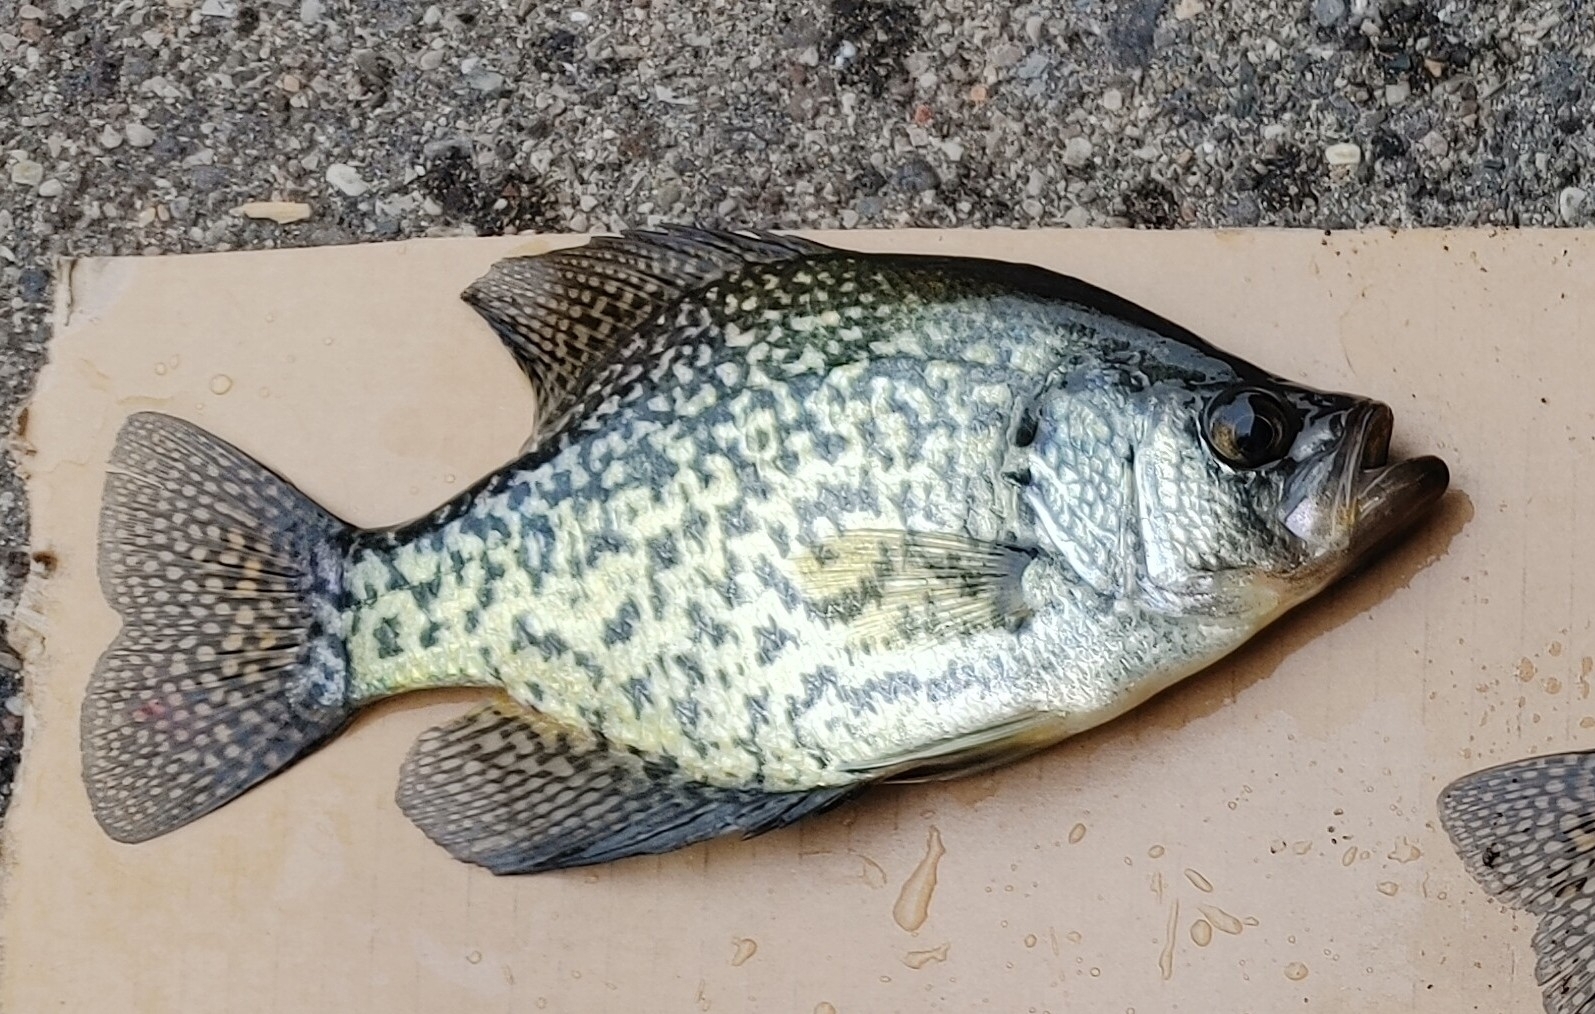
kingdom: Animalia
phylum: Chordata
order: Perciformes
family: Centrarchidae
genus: Pomoxis
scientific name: Pomoxis nigromaculatus
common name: Black crappie
